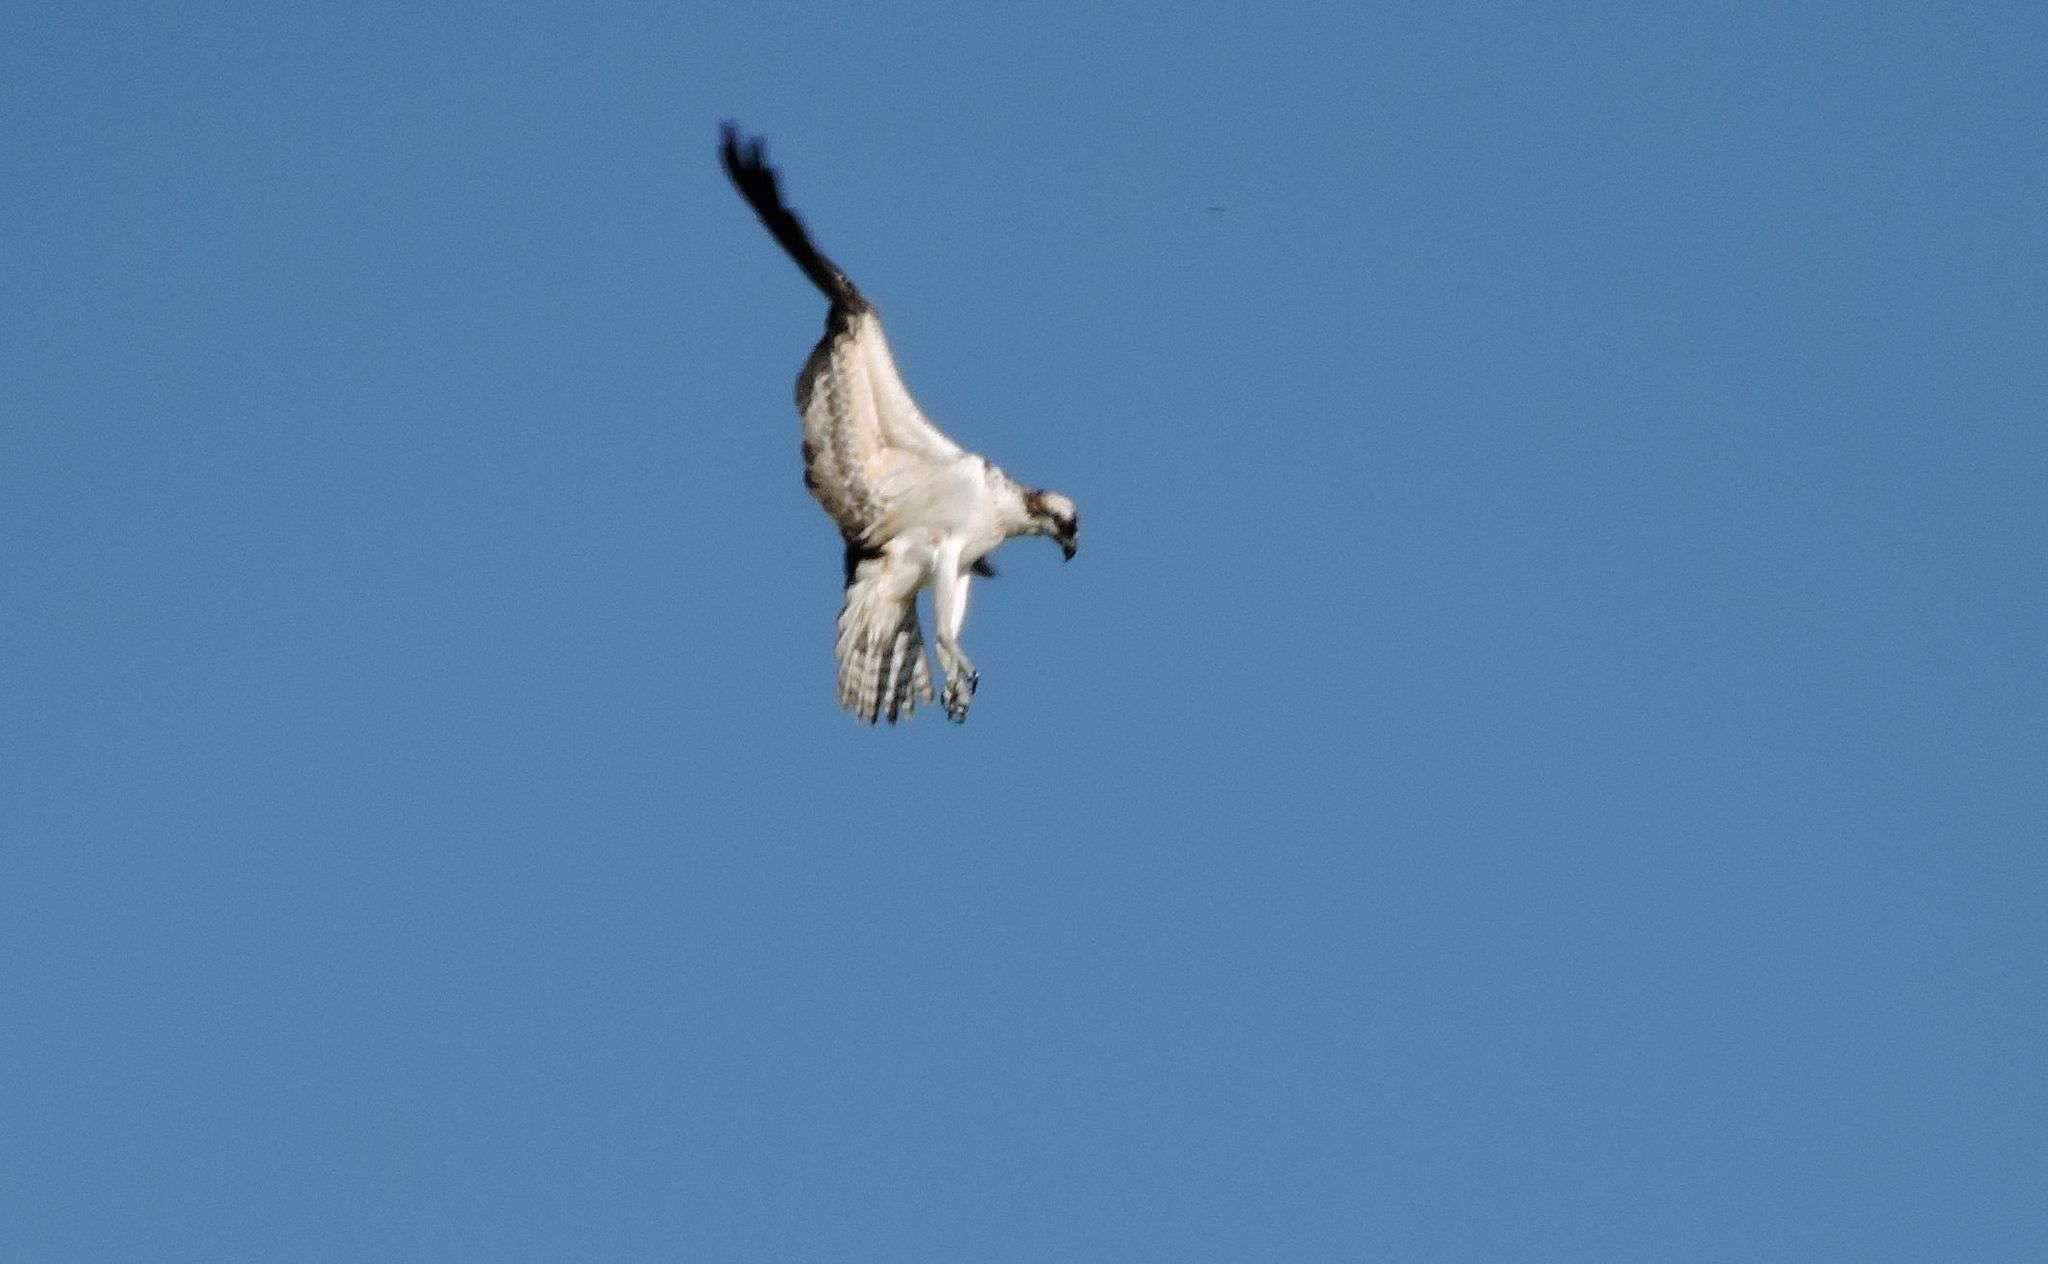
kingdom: Animalia
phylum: Chordata
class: Aves
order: Accipitriformes
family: Pandionidae
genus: Pandion
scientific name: Pandion haliaetus
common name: Osprey
